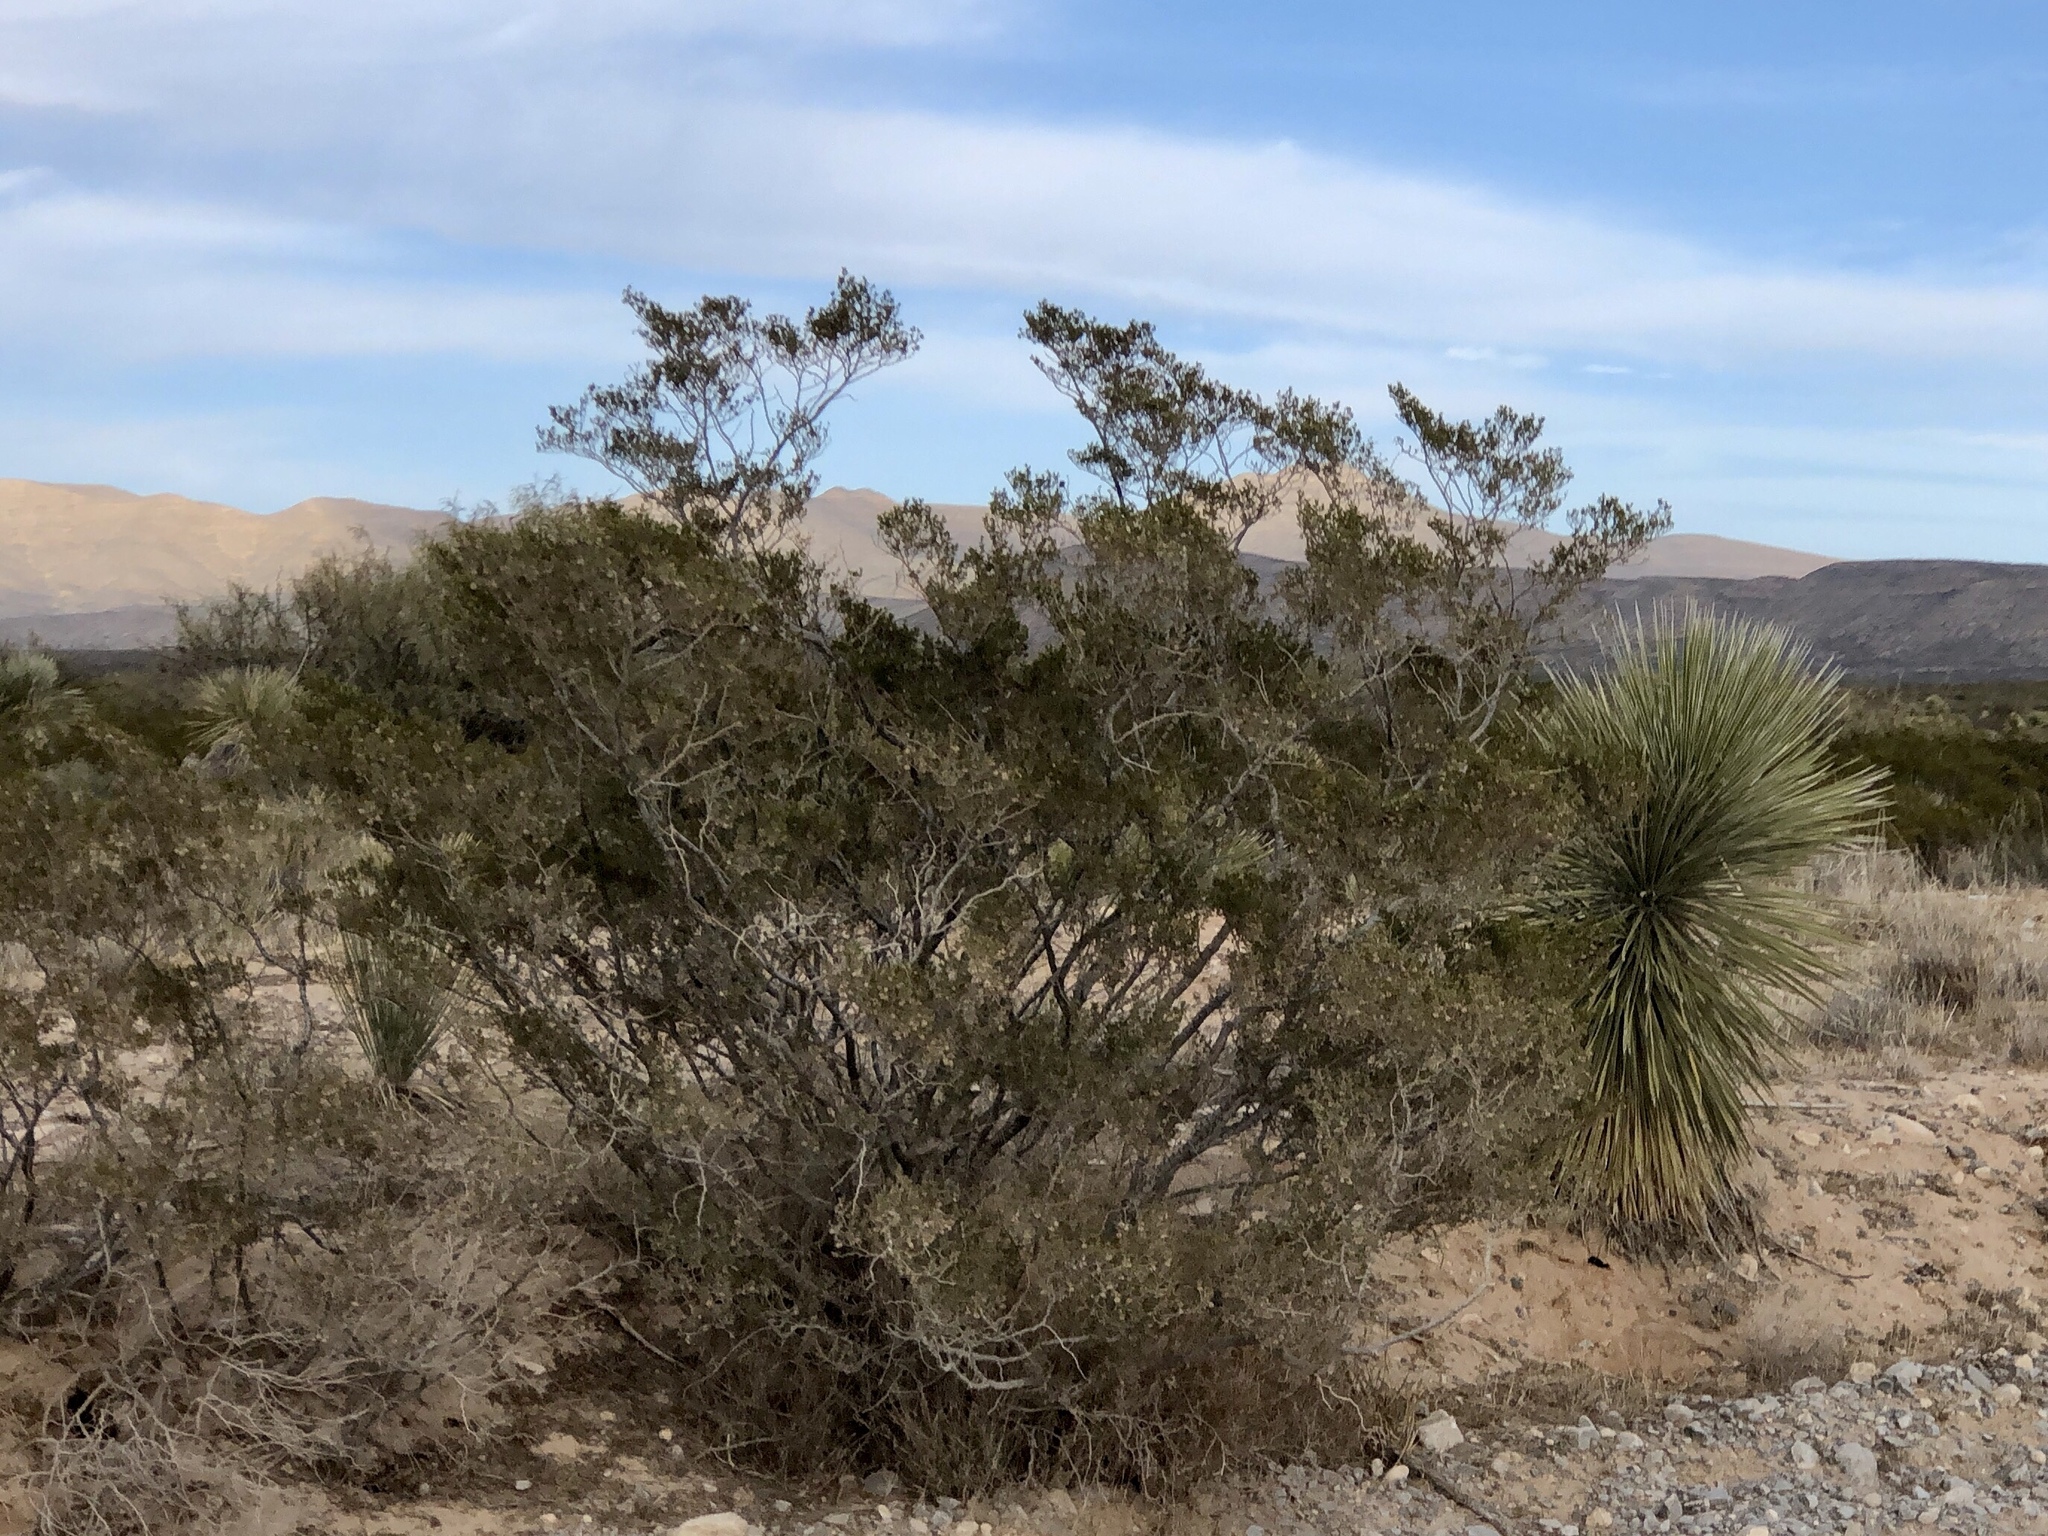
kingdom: Plantae
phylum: Tracheophyta
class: Magnoliopsida
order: Zygophyllales
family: Zygophyllaceae
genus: Larrea
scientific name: Larrea tridentata
